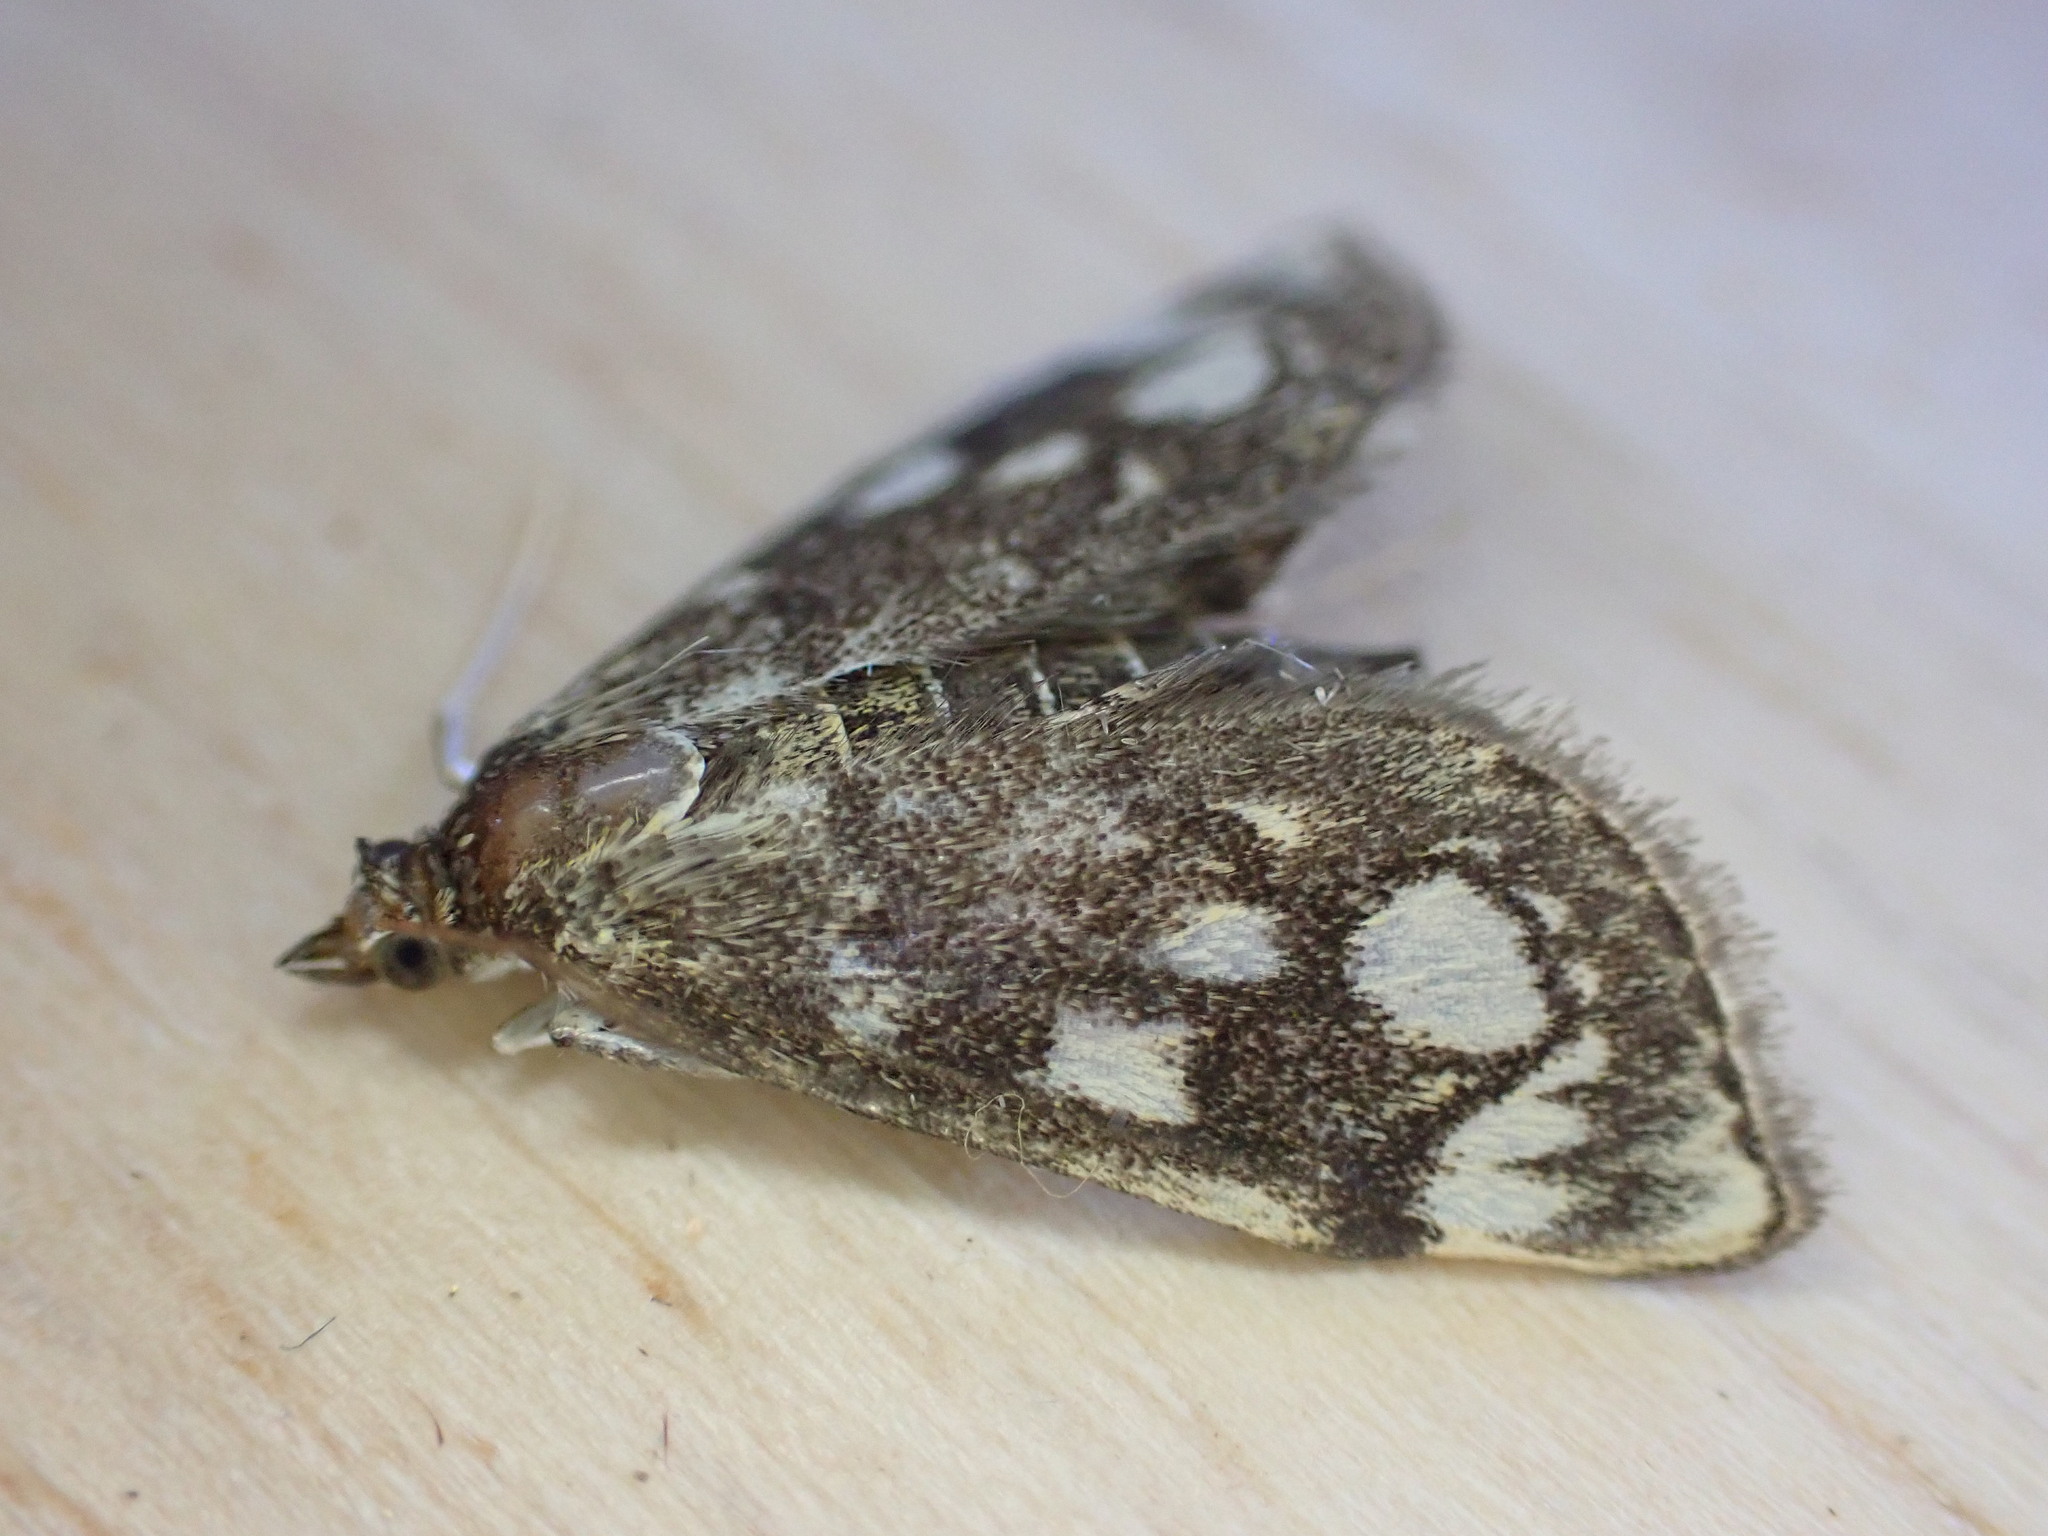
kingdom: Animalia
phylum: Arthropoda
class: Insecta
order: Lepidoptera
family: Crambidae
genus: Anania
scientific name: Anania coronata
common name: Elder pearl
